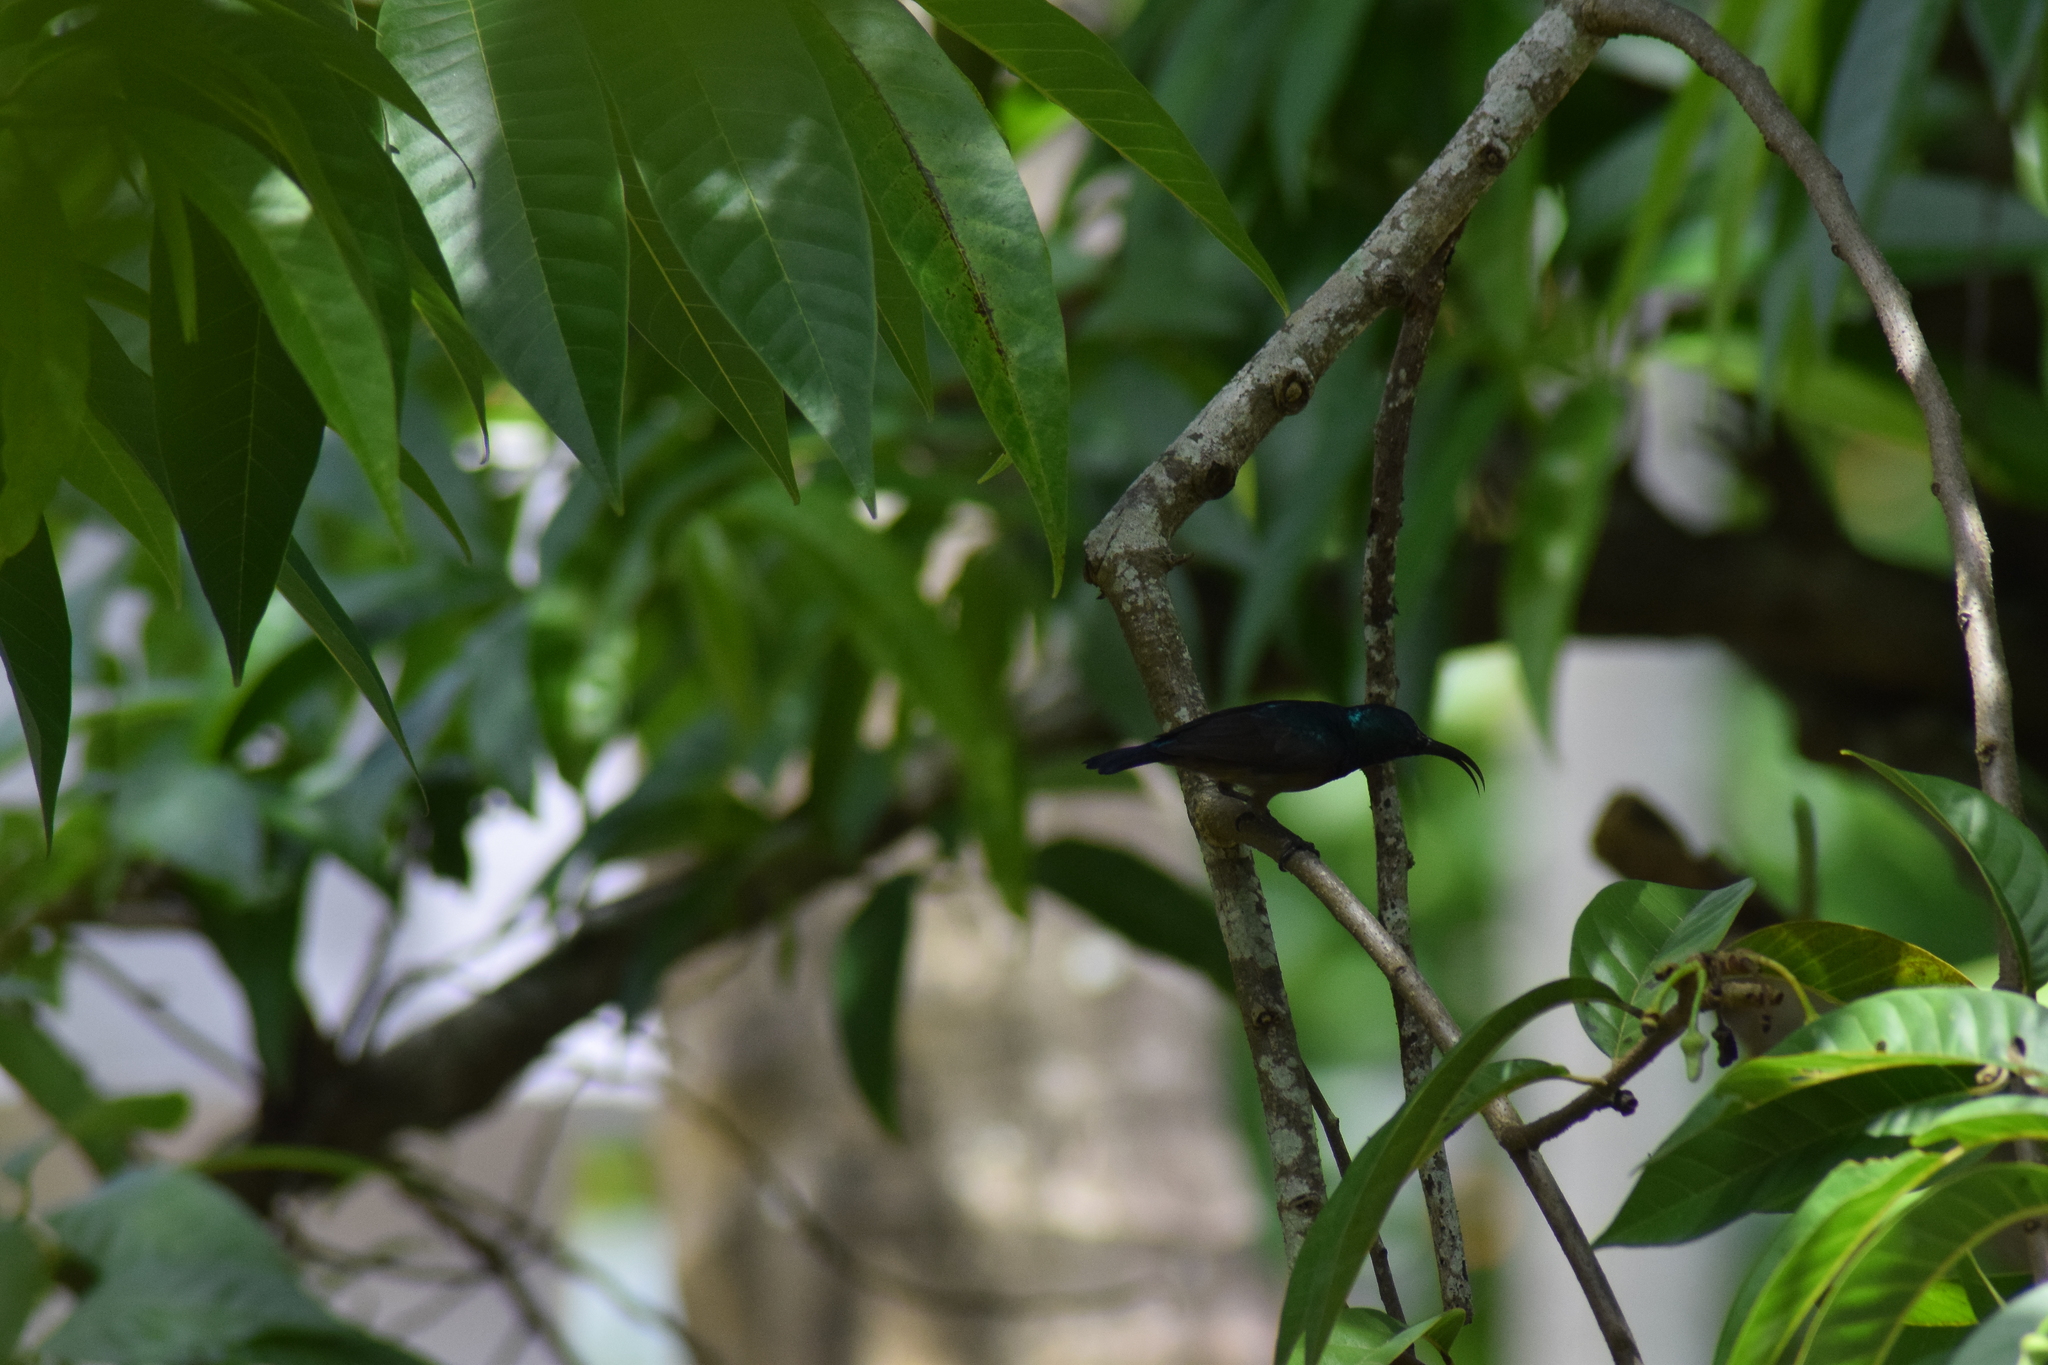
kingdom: Animalia
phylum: Chordata
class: Aves
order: Passeriformes
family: Nectariniidae
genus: Cinnyris
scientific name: Cinnyris lotenius
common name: Loten's sunbird
